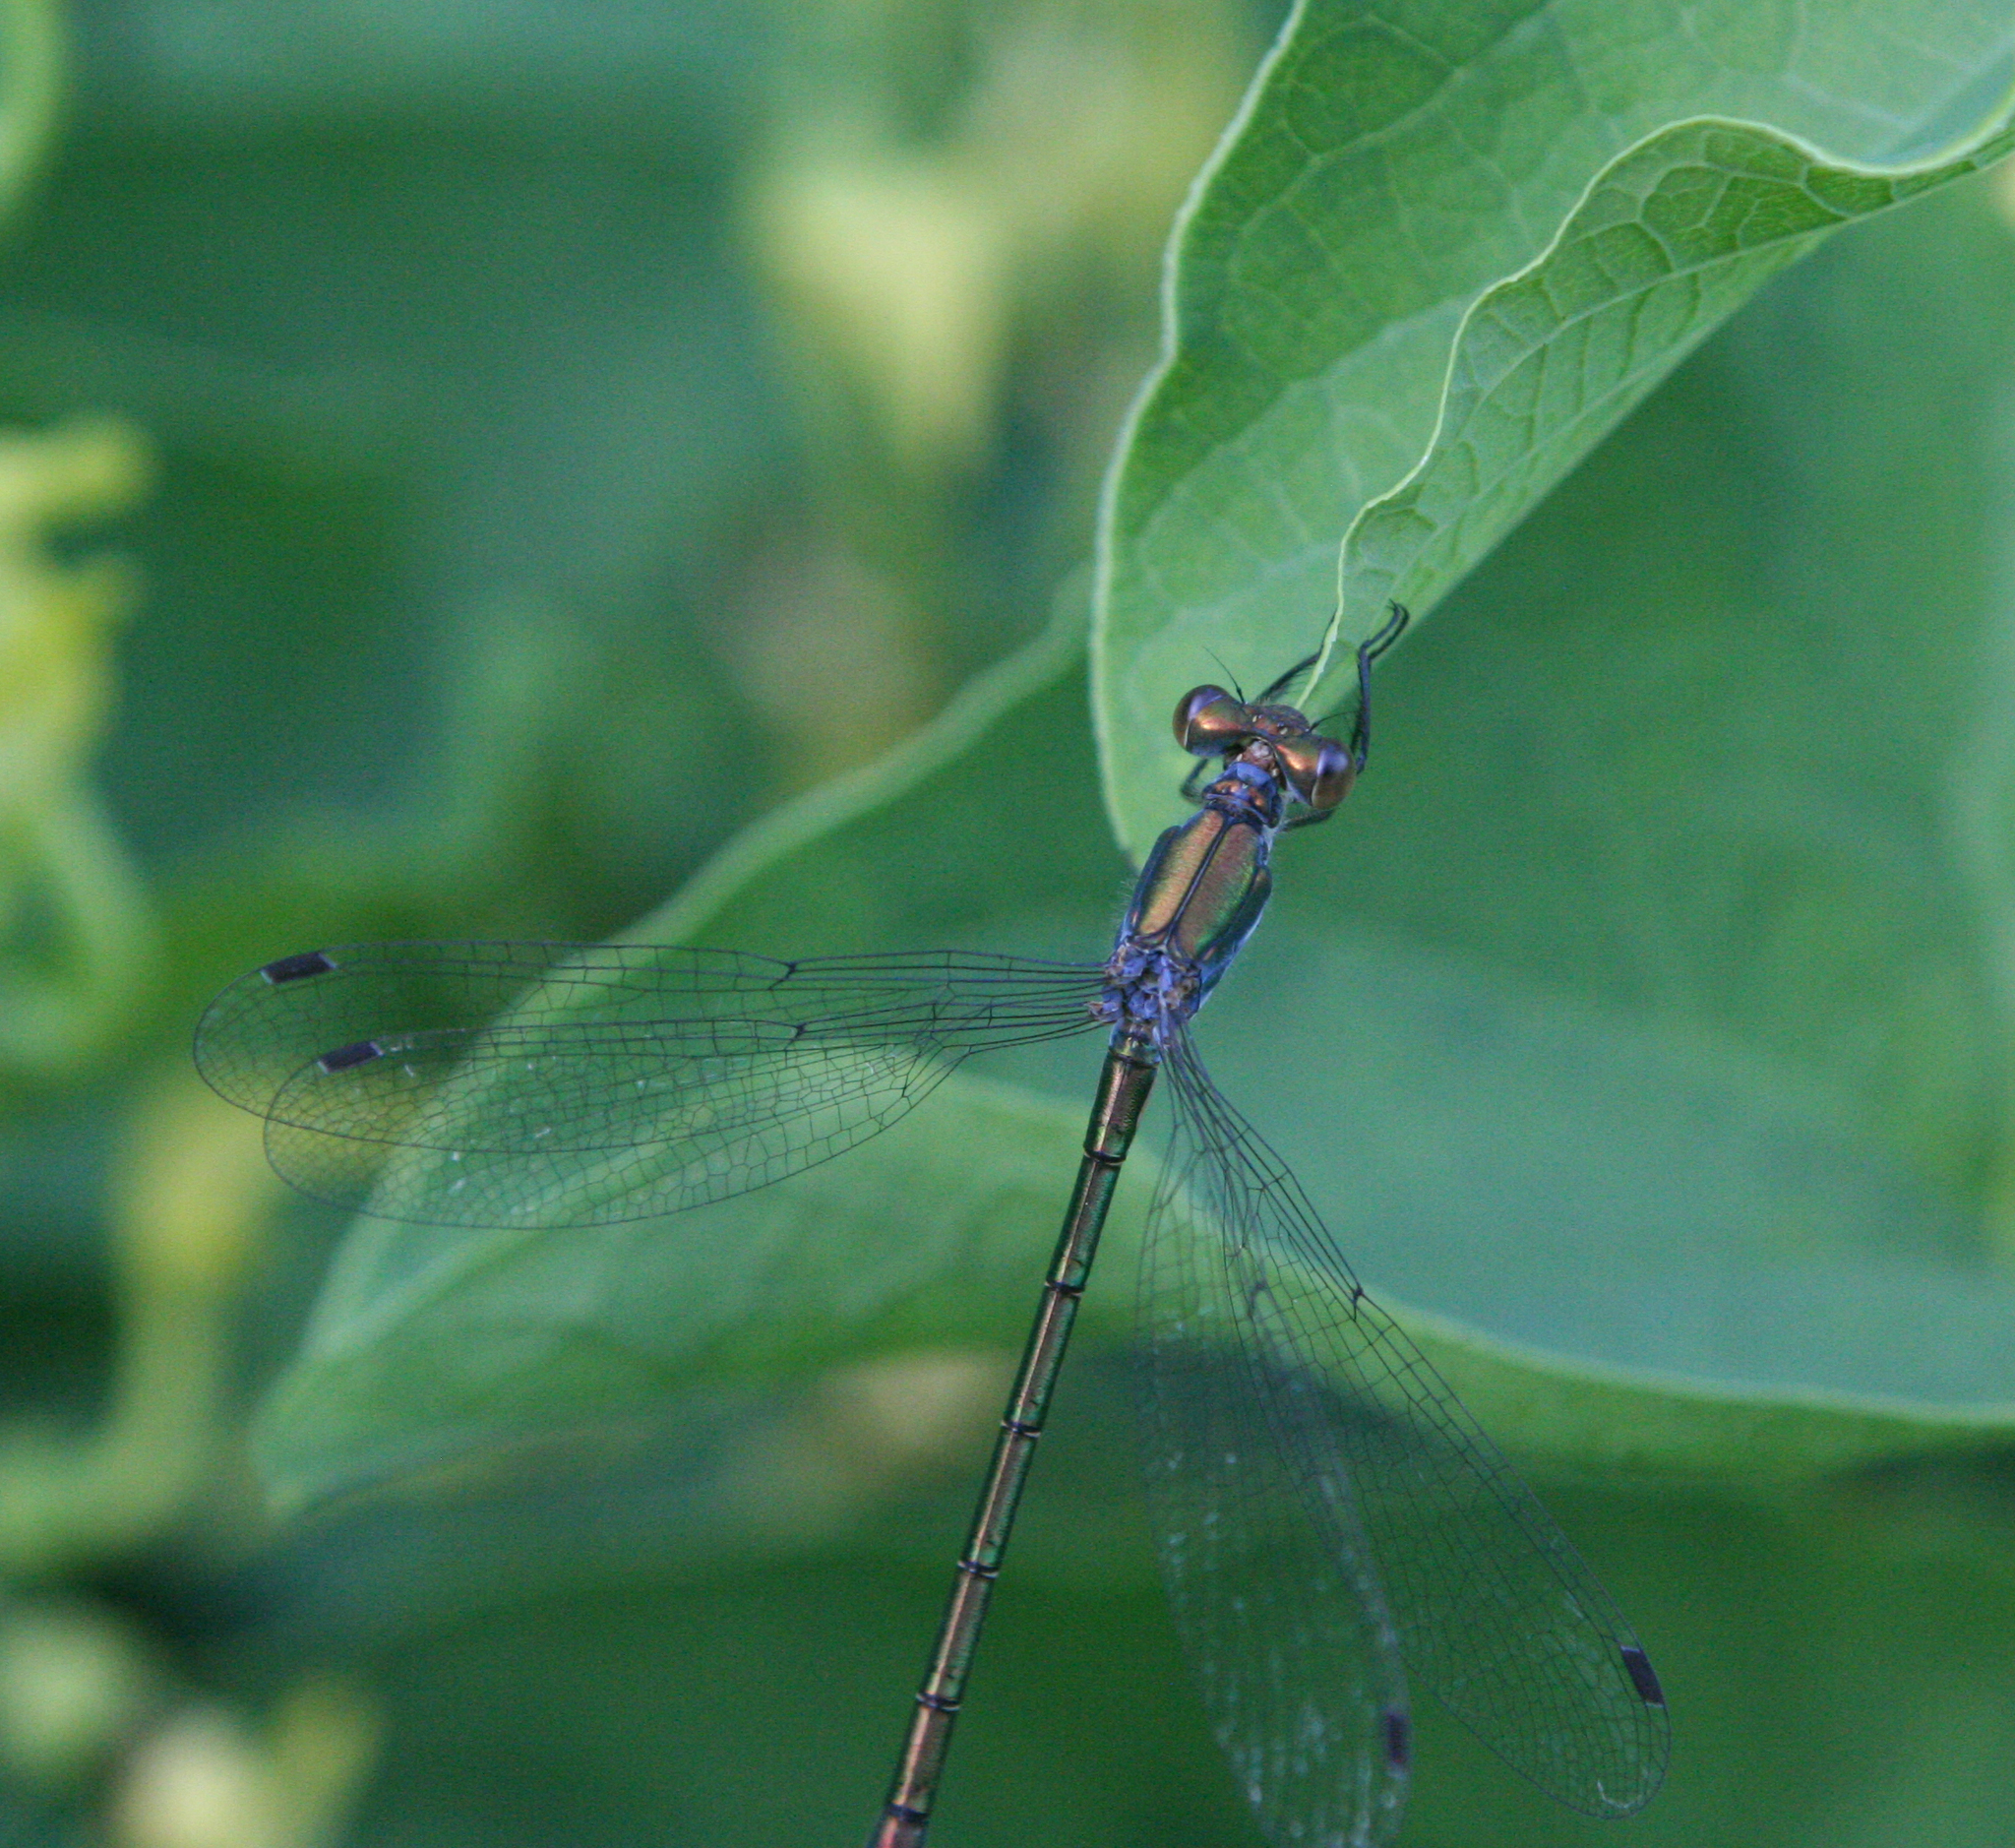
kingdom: Animalia
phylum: Arthropoda
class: Insecta
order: Odonata
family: Lestidae
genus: Lestes
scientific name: Lestes dryas
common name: Scarce emerald damselfly
